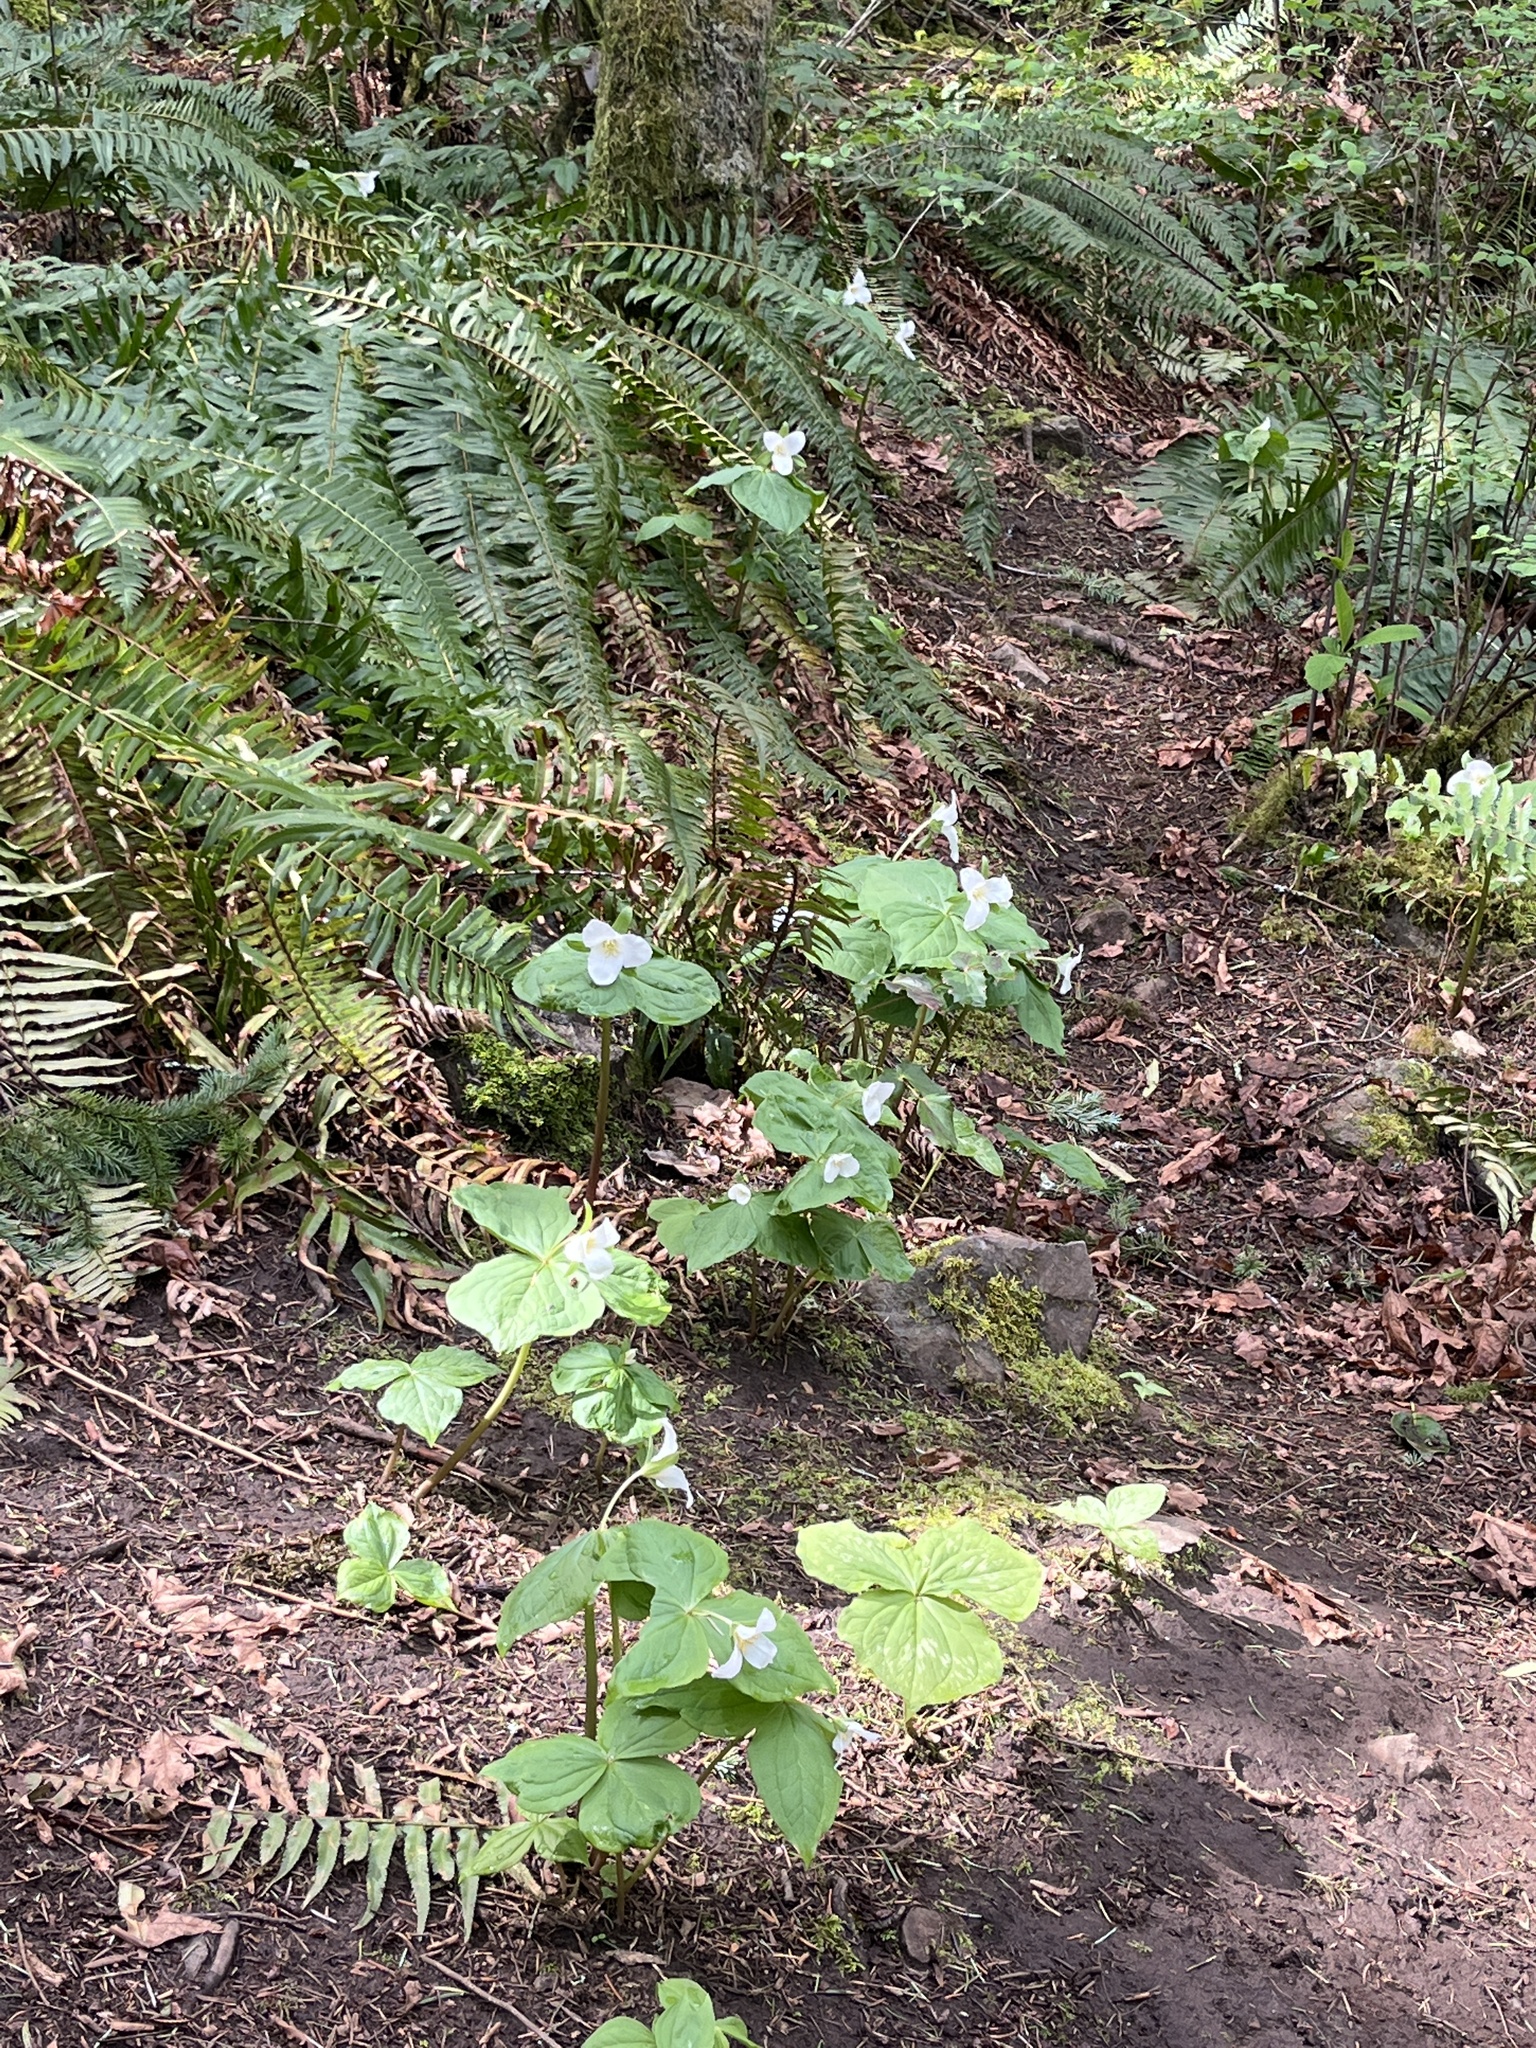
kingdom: Plantae
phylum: Tracheophyta
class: Liliopsida
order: Liliales
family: Melanthiaceae
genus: Trillium
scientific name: Trillium ovatum
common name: Pacific trillium
